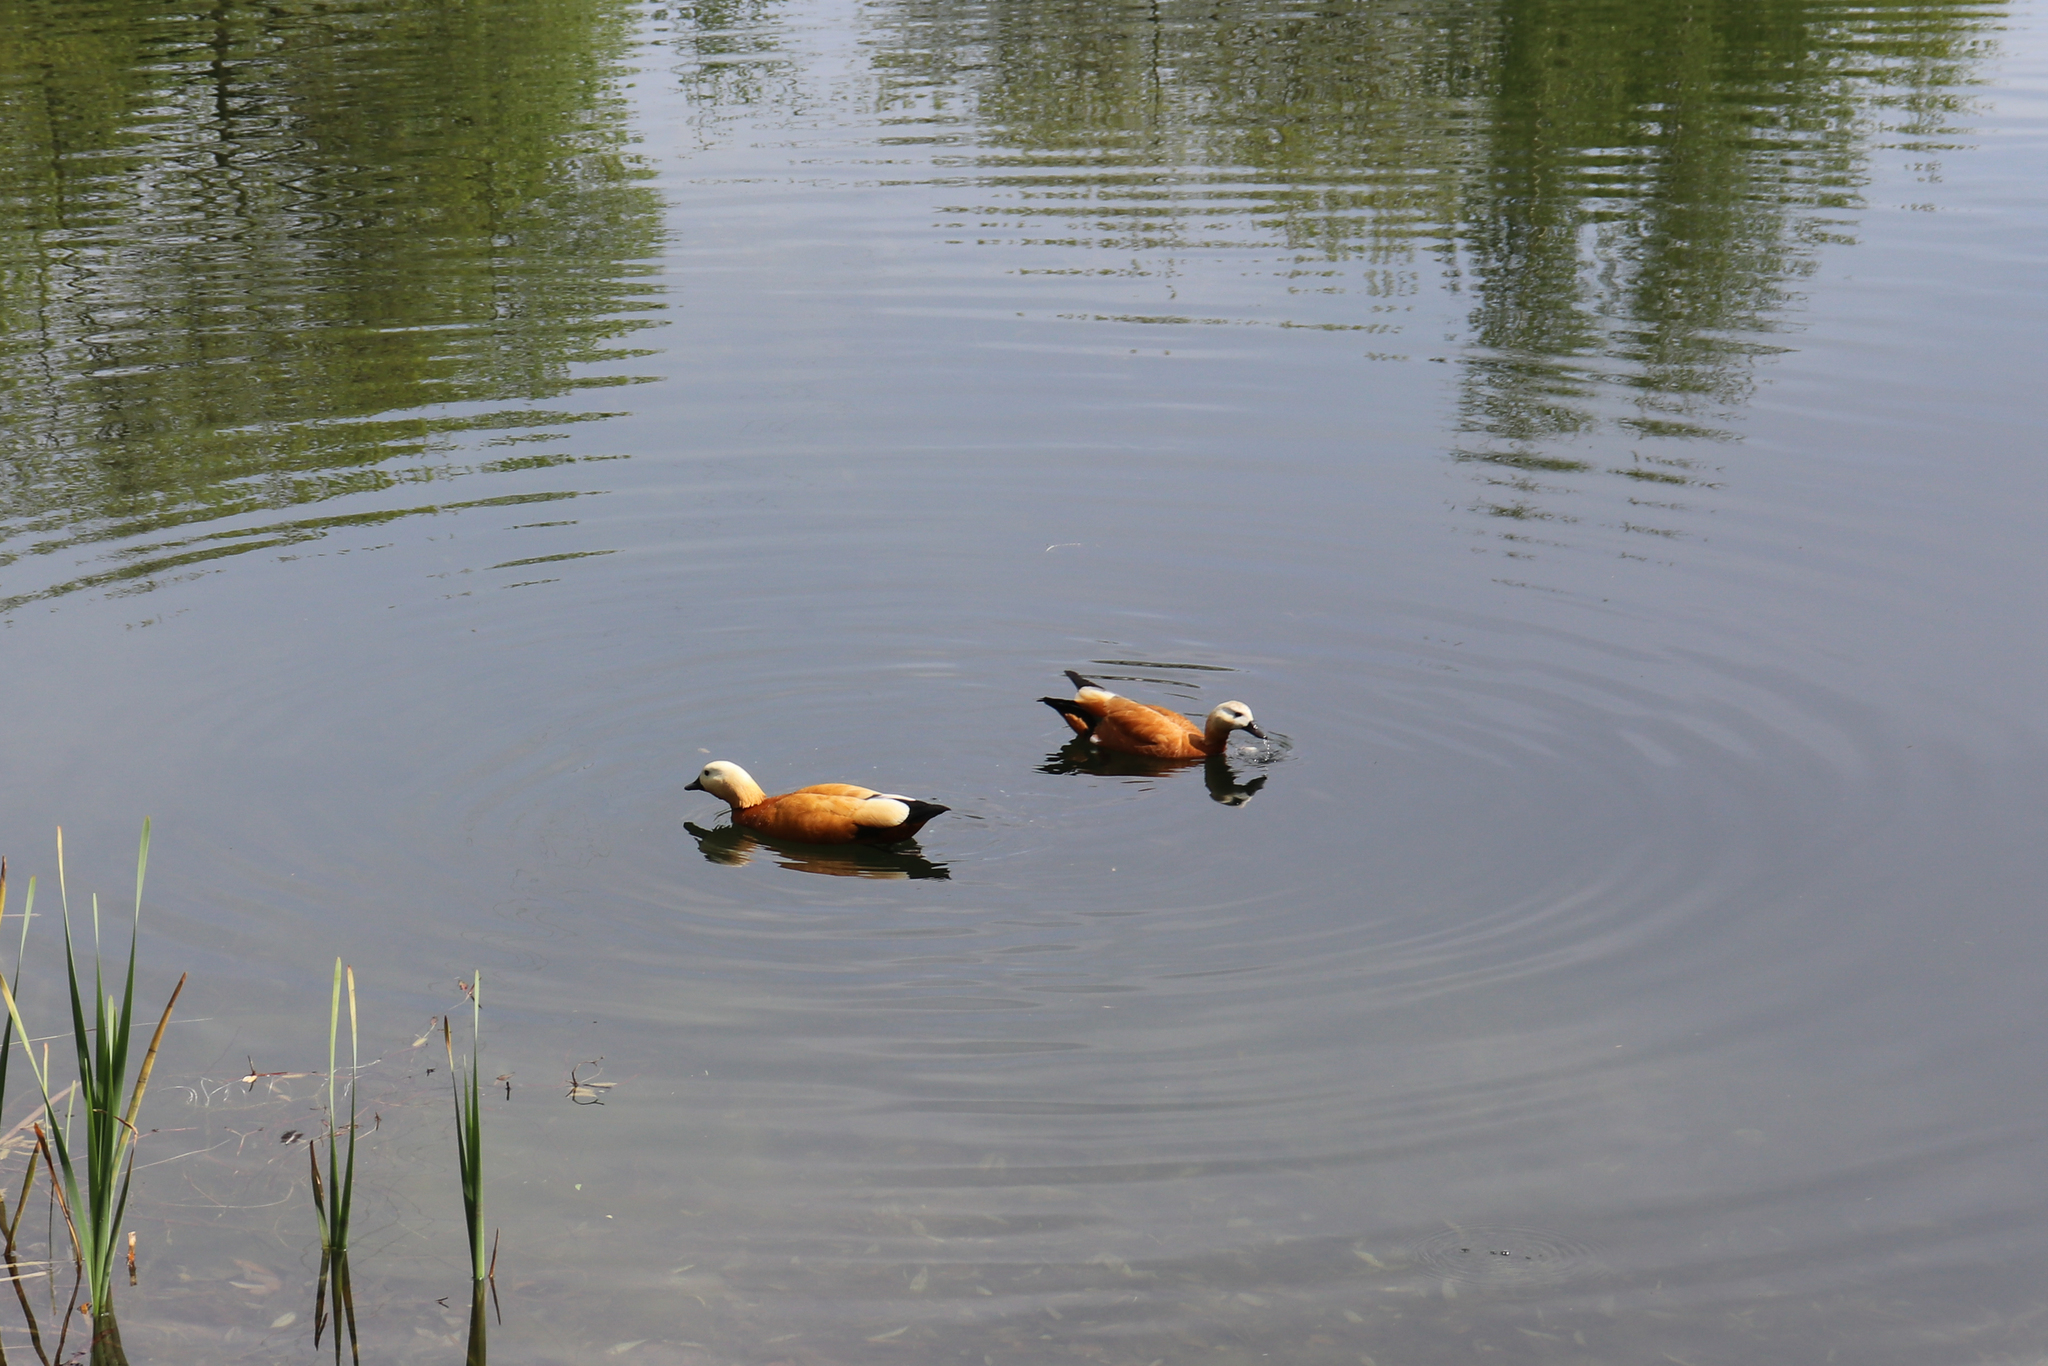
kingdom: Animalia
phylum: Chordata
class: Aves
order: Anseriformes
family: Anatidae
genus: Tadorna
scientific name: Tadorna ferruginea
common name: Ruddy shelduck
